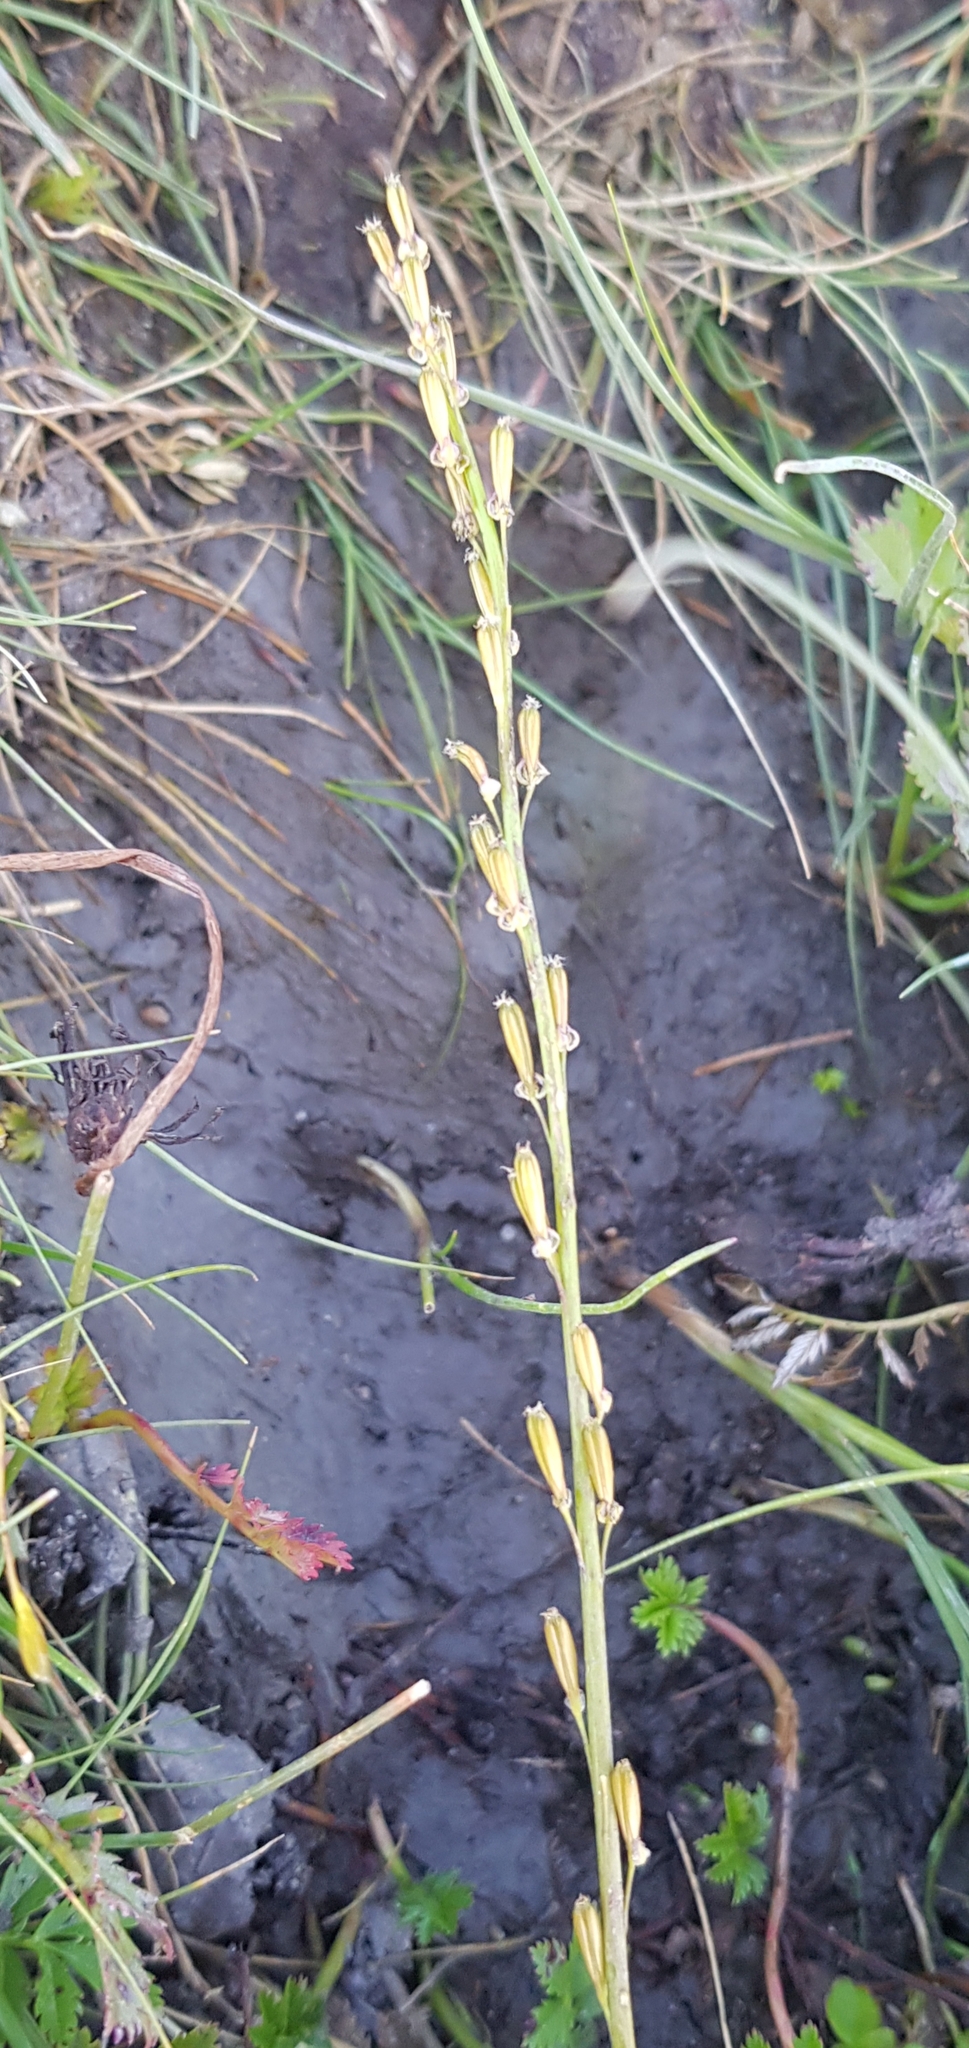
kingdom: Plantae
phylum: Tracheophyta
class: Liliopsida
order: Alismatales
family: Juncaginaceae
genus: Triglochin
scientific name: Triglochin palustris
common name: Marsh arrowgrass
